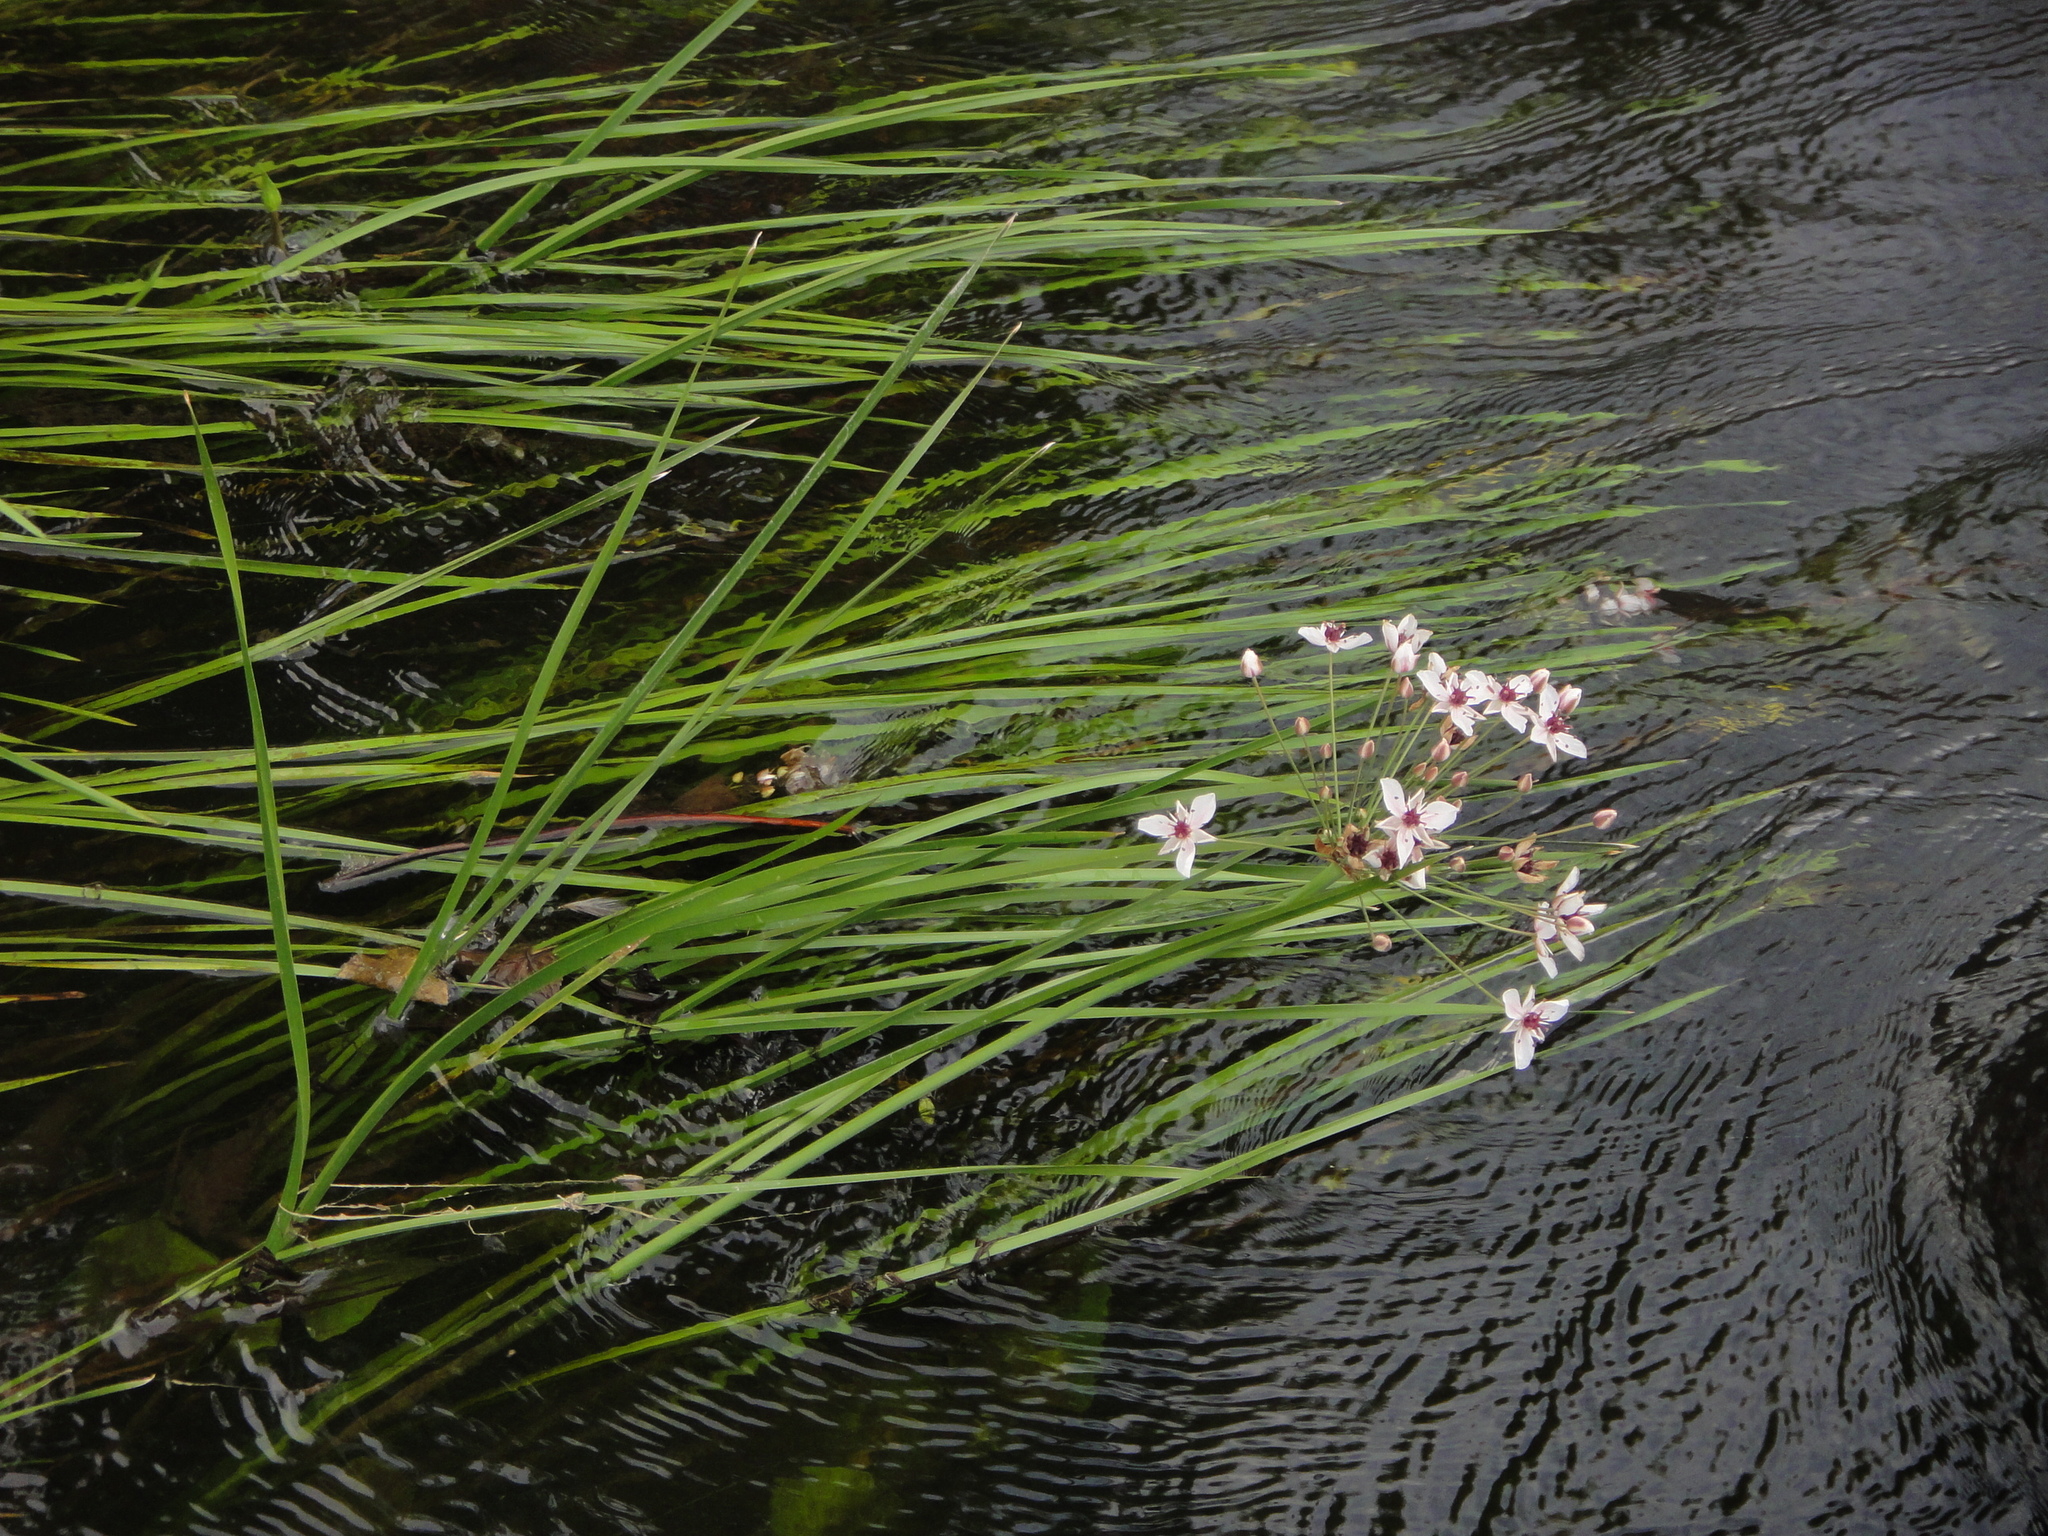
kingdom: Plantae
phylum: Tracheophyta
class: Liliopsida
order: Alismatales
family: Butomaceae
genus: Butomus
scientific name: Butomus umbellatus
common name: Flowering-rush
